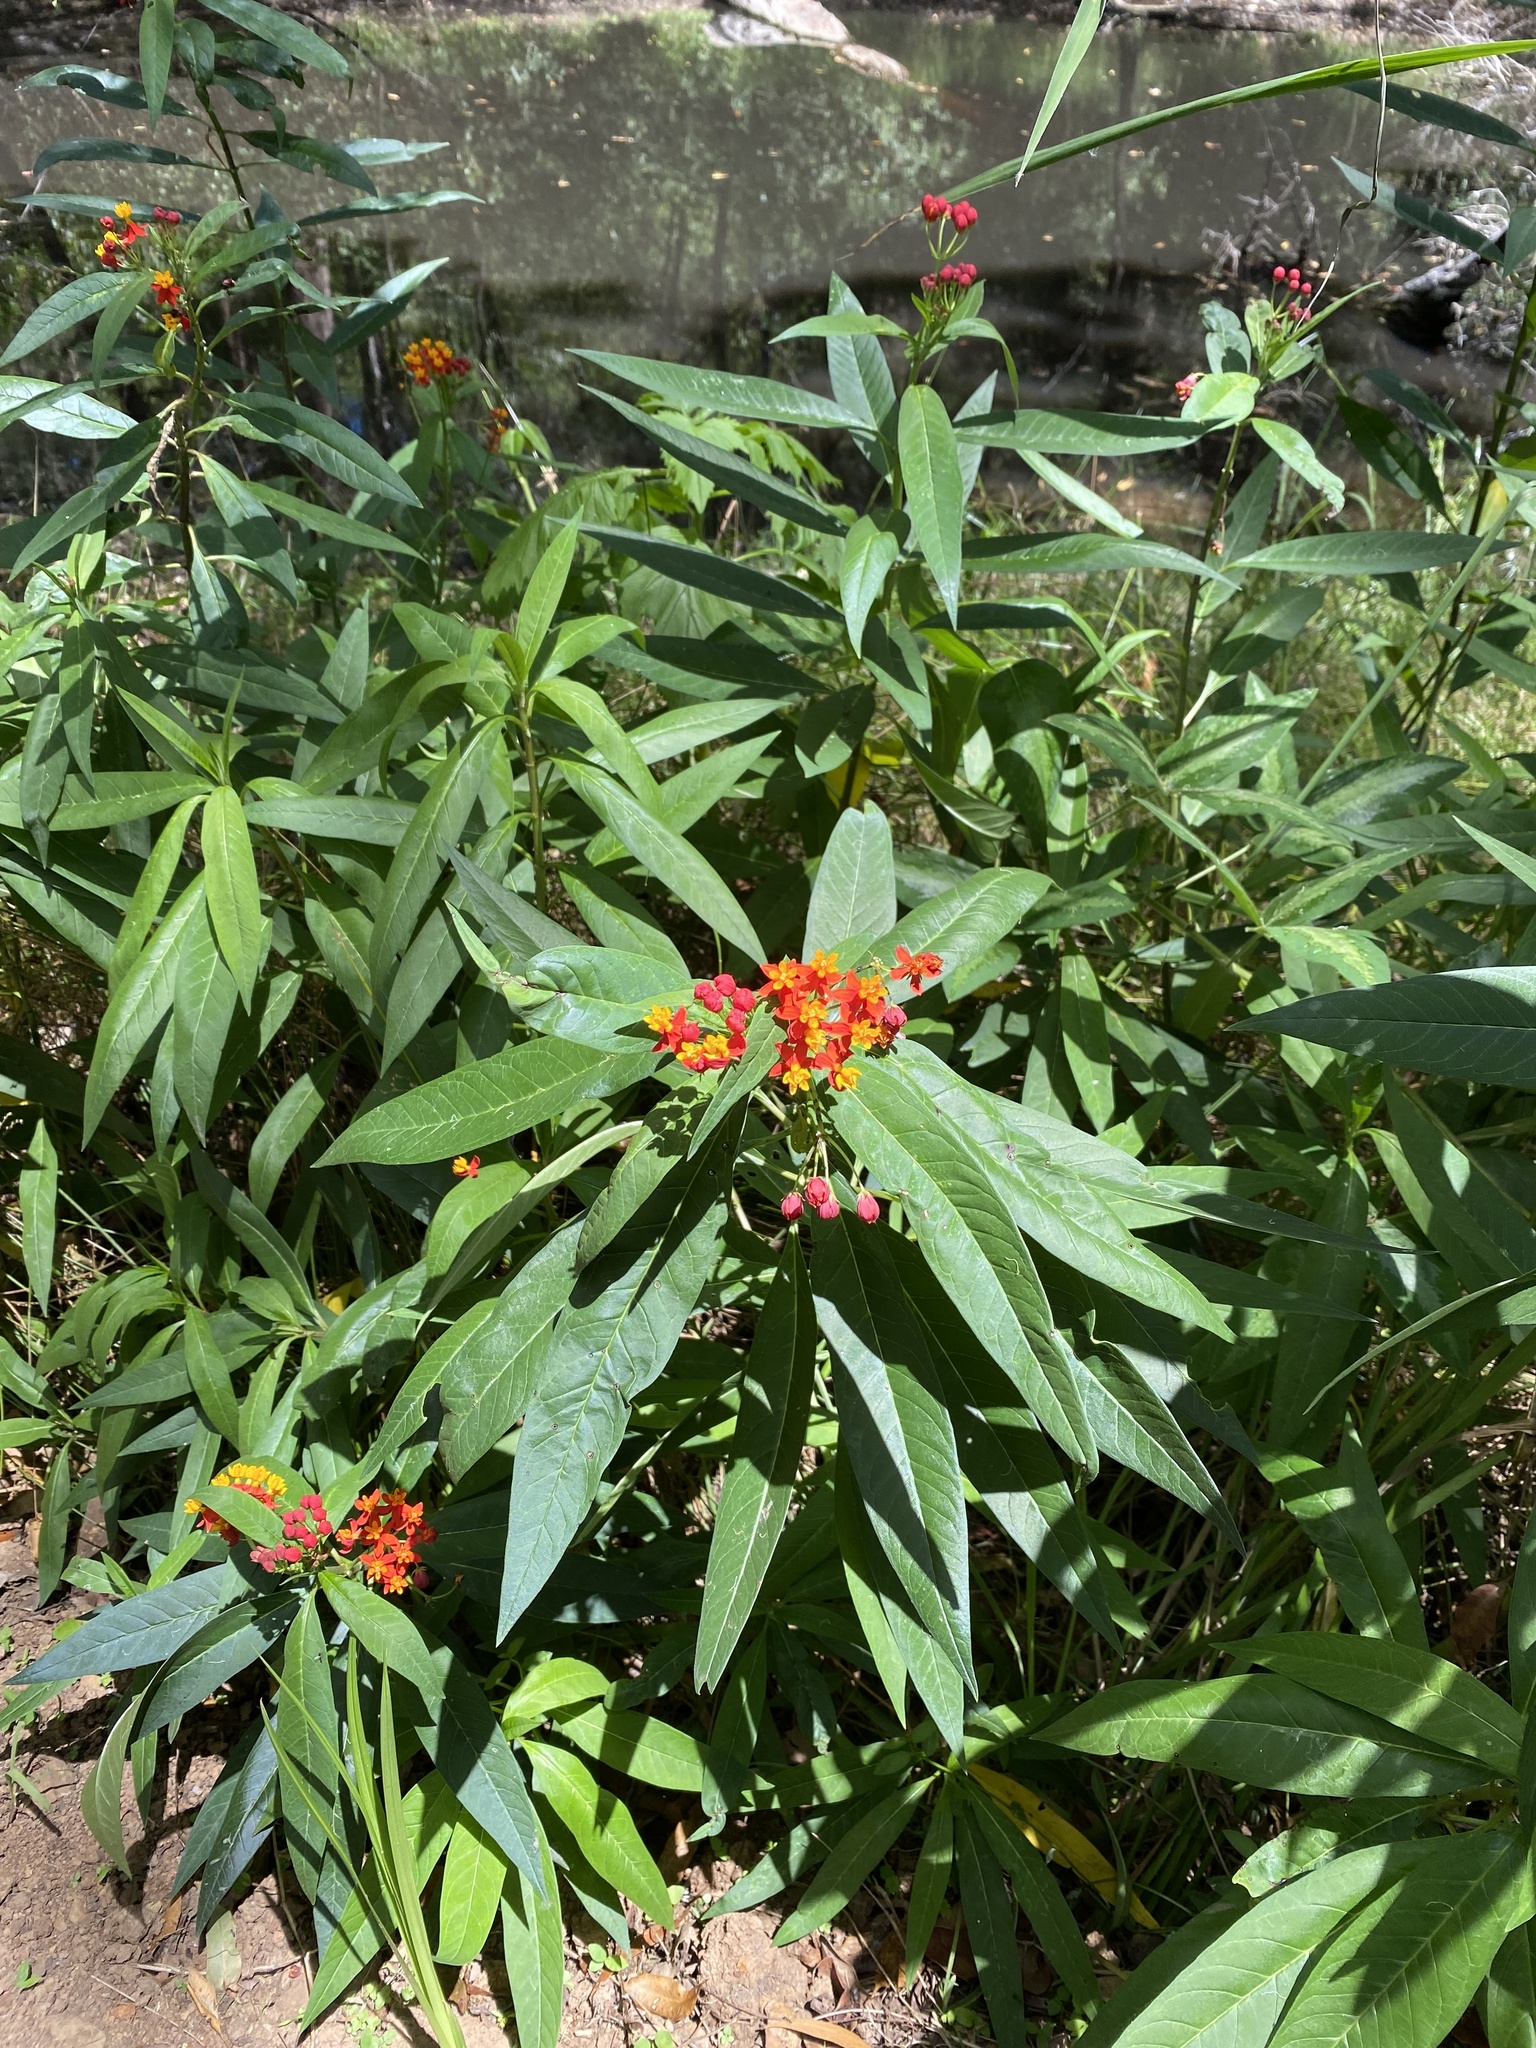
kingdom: Plantae
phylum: Tracheophyta
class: Magnoliopsida
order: Gentianales
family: Apocynaceae
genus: Asclepias
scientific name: Asclepias curassavica
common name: Bloodflower
